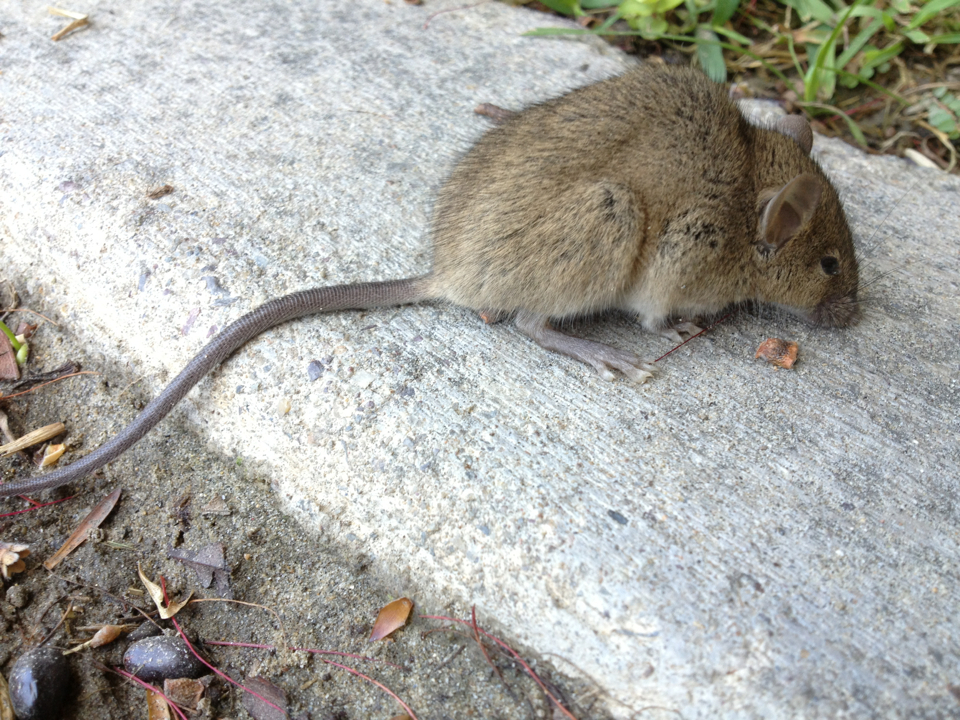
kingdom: Animalia
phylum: Chordata
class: Mammalia
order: Rodentia
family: Muridae
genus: Mus
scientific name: Mus musculus
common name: House mouse
